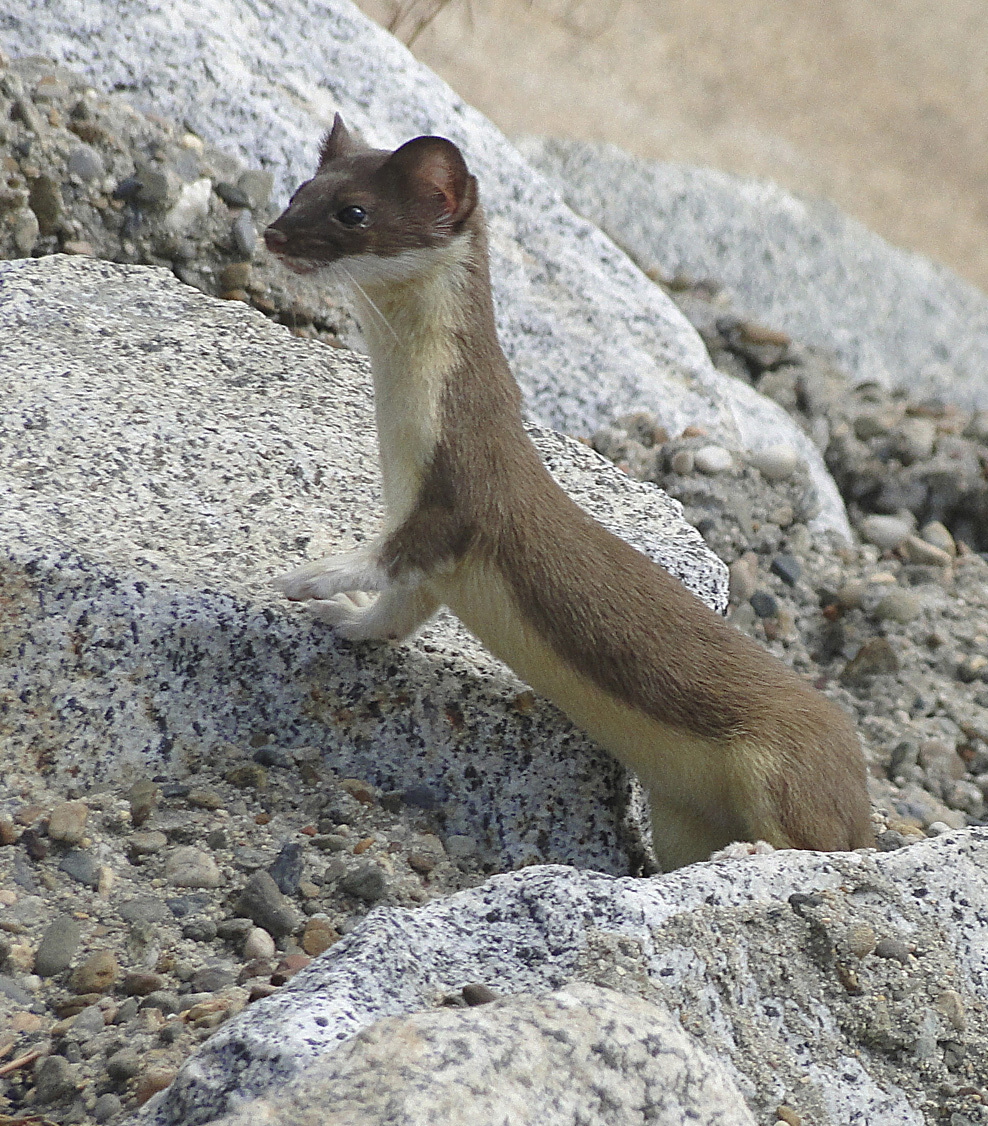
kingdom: Animalia
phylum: Chordata
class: Mammalia
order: Carnivora
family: Mustelidae
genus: Mustela
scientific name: Mustela
